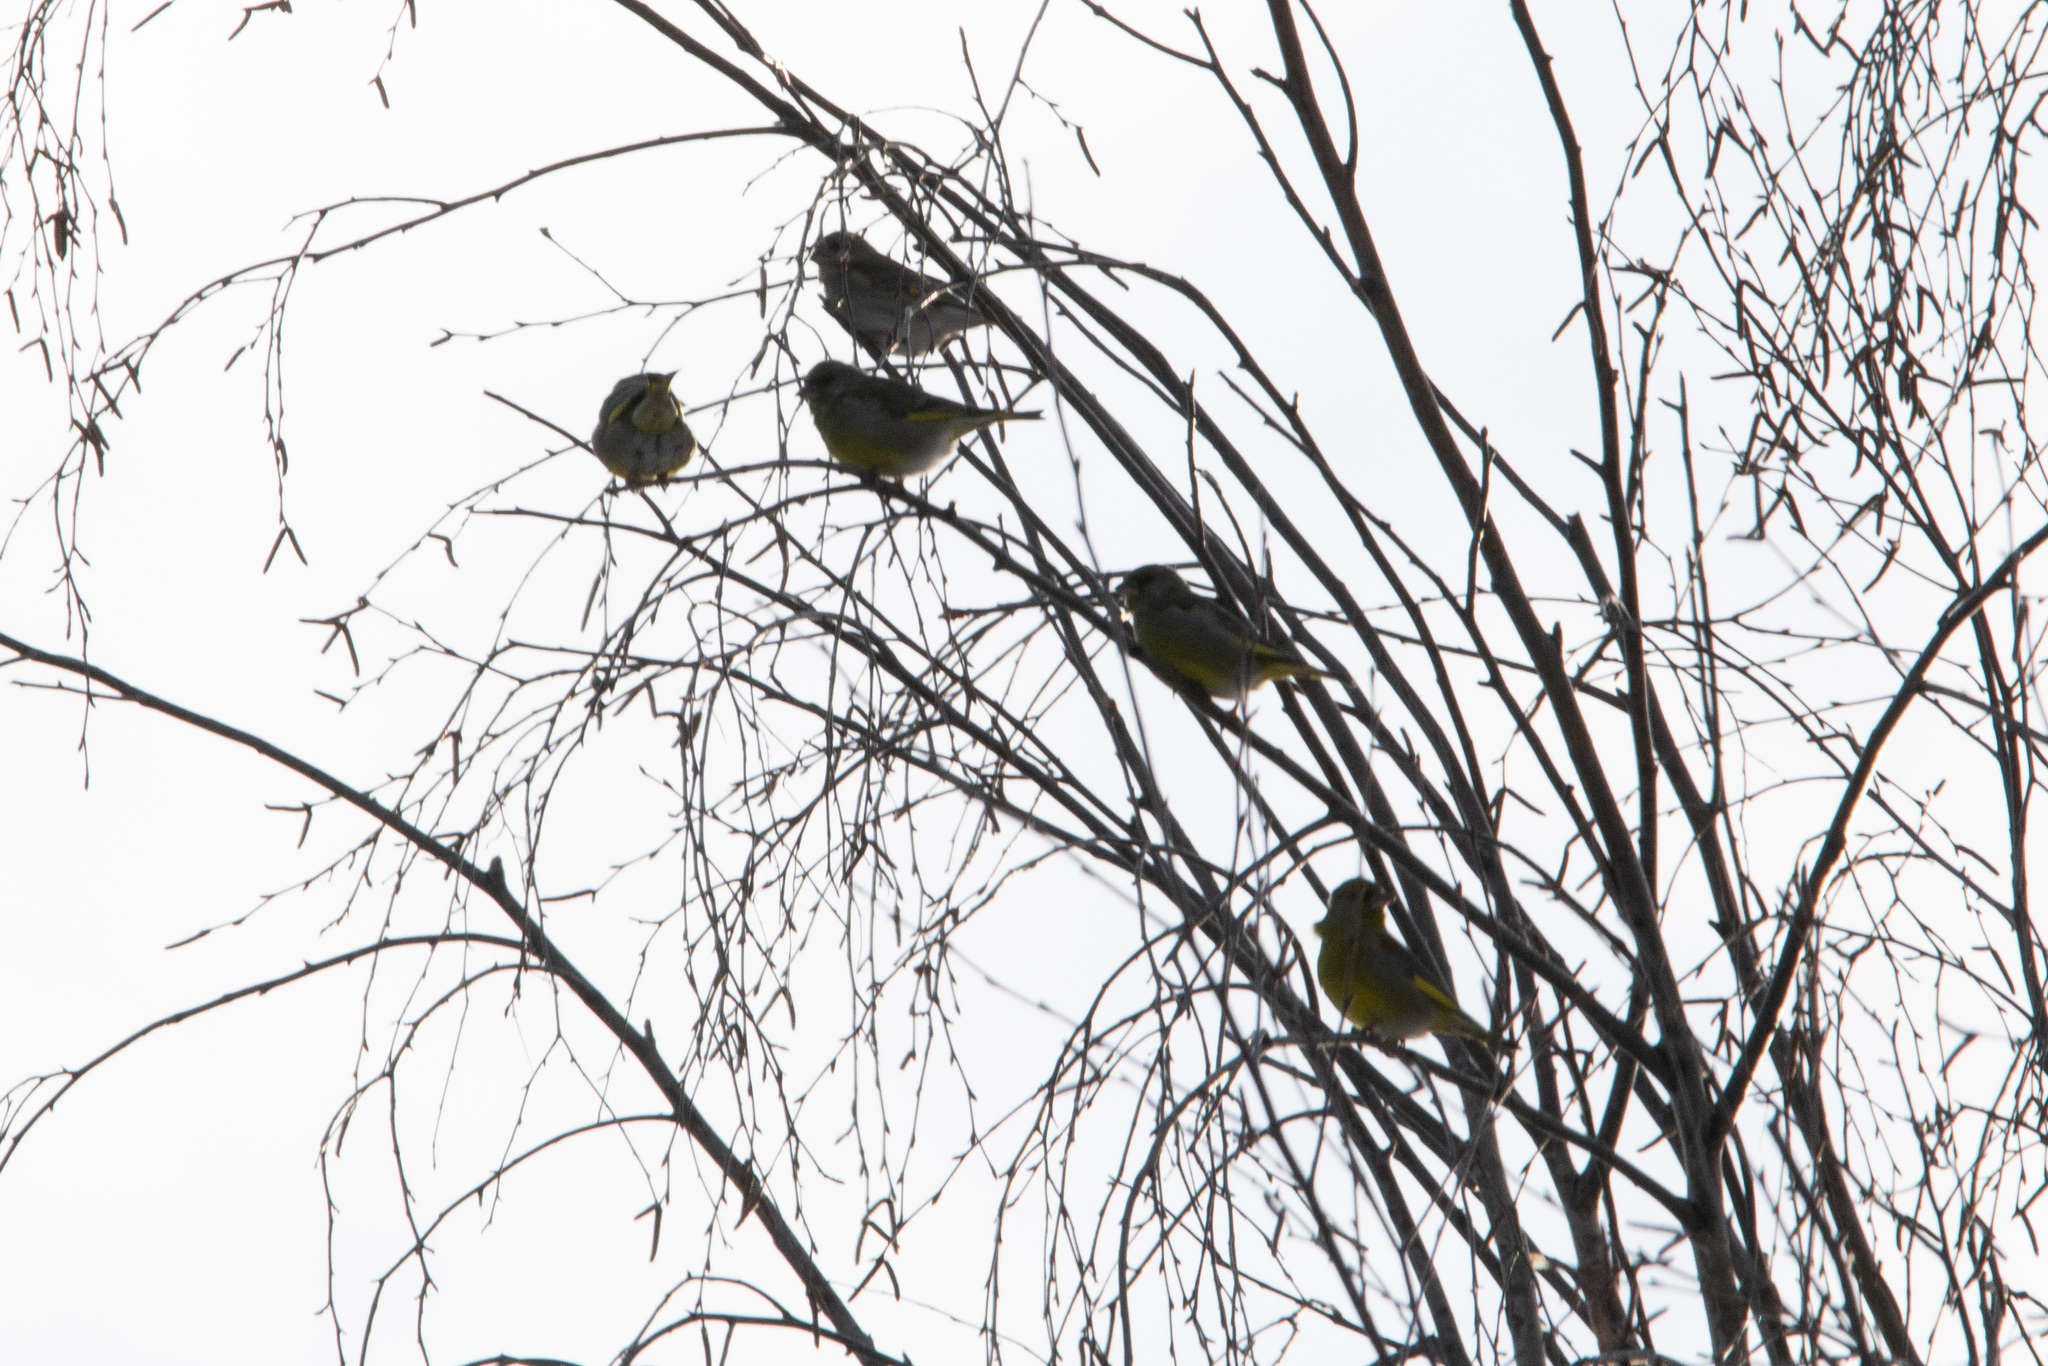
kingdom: Plantae
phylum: Tracheophyta
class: Liliopsida
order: Poales
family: Poaceae
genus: Chloris
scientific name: Chloris chloris
